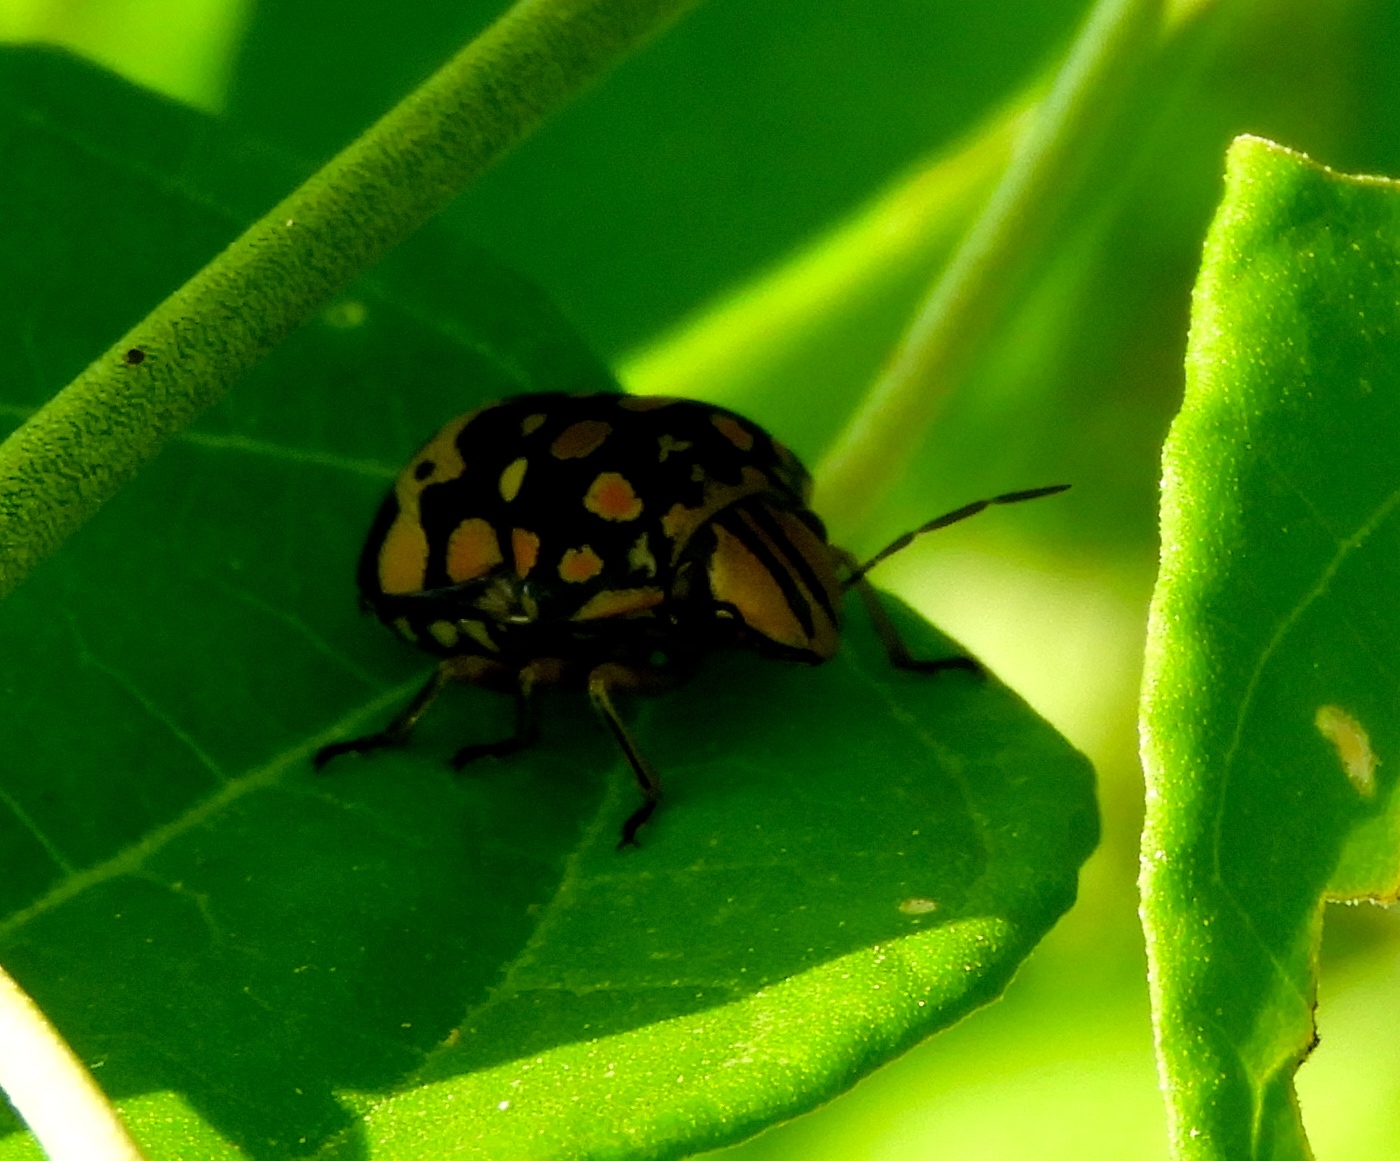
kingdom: Animalia
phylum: Arthropoda
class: Insecta
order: Hemiptera
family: Scutelleridae
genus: Orsilochides
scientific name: Orsilochides
